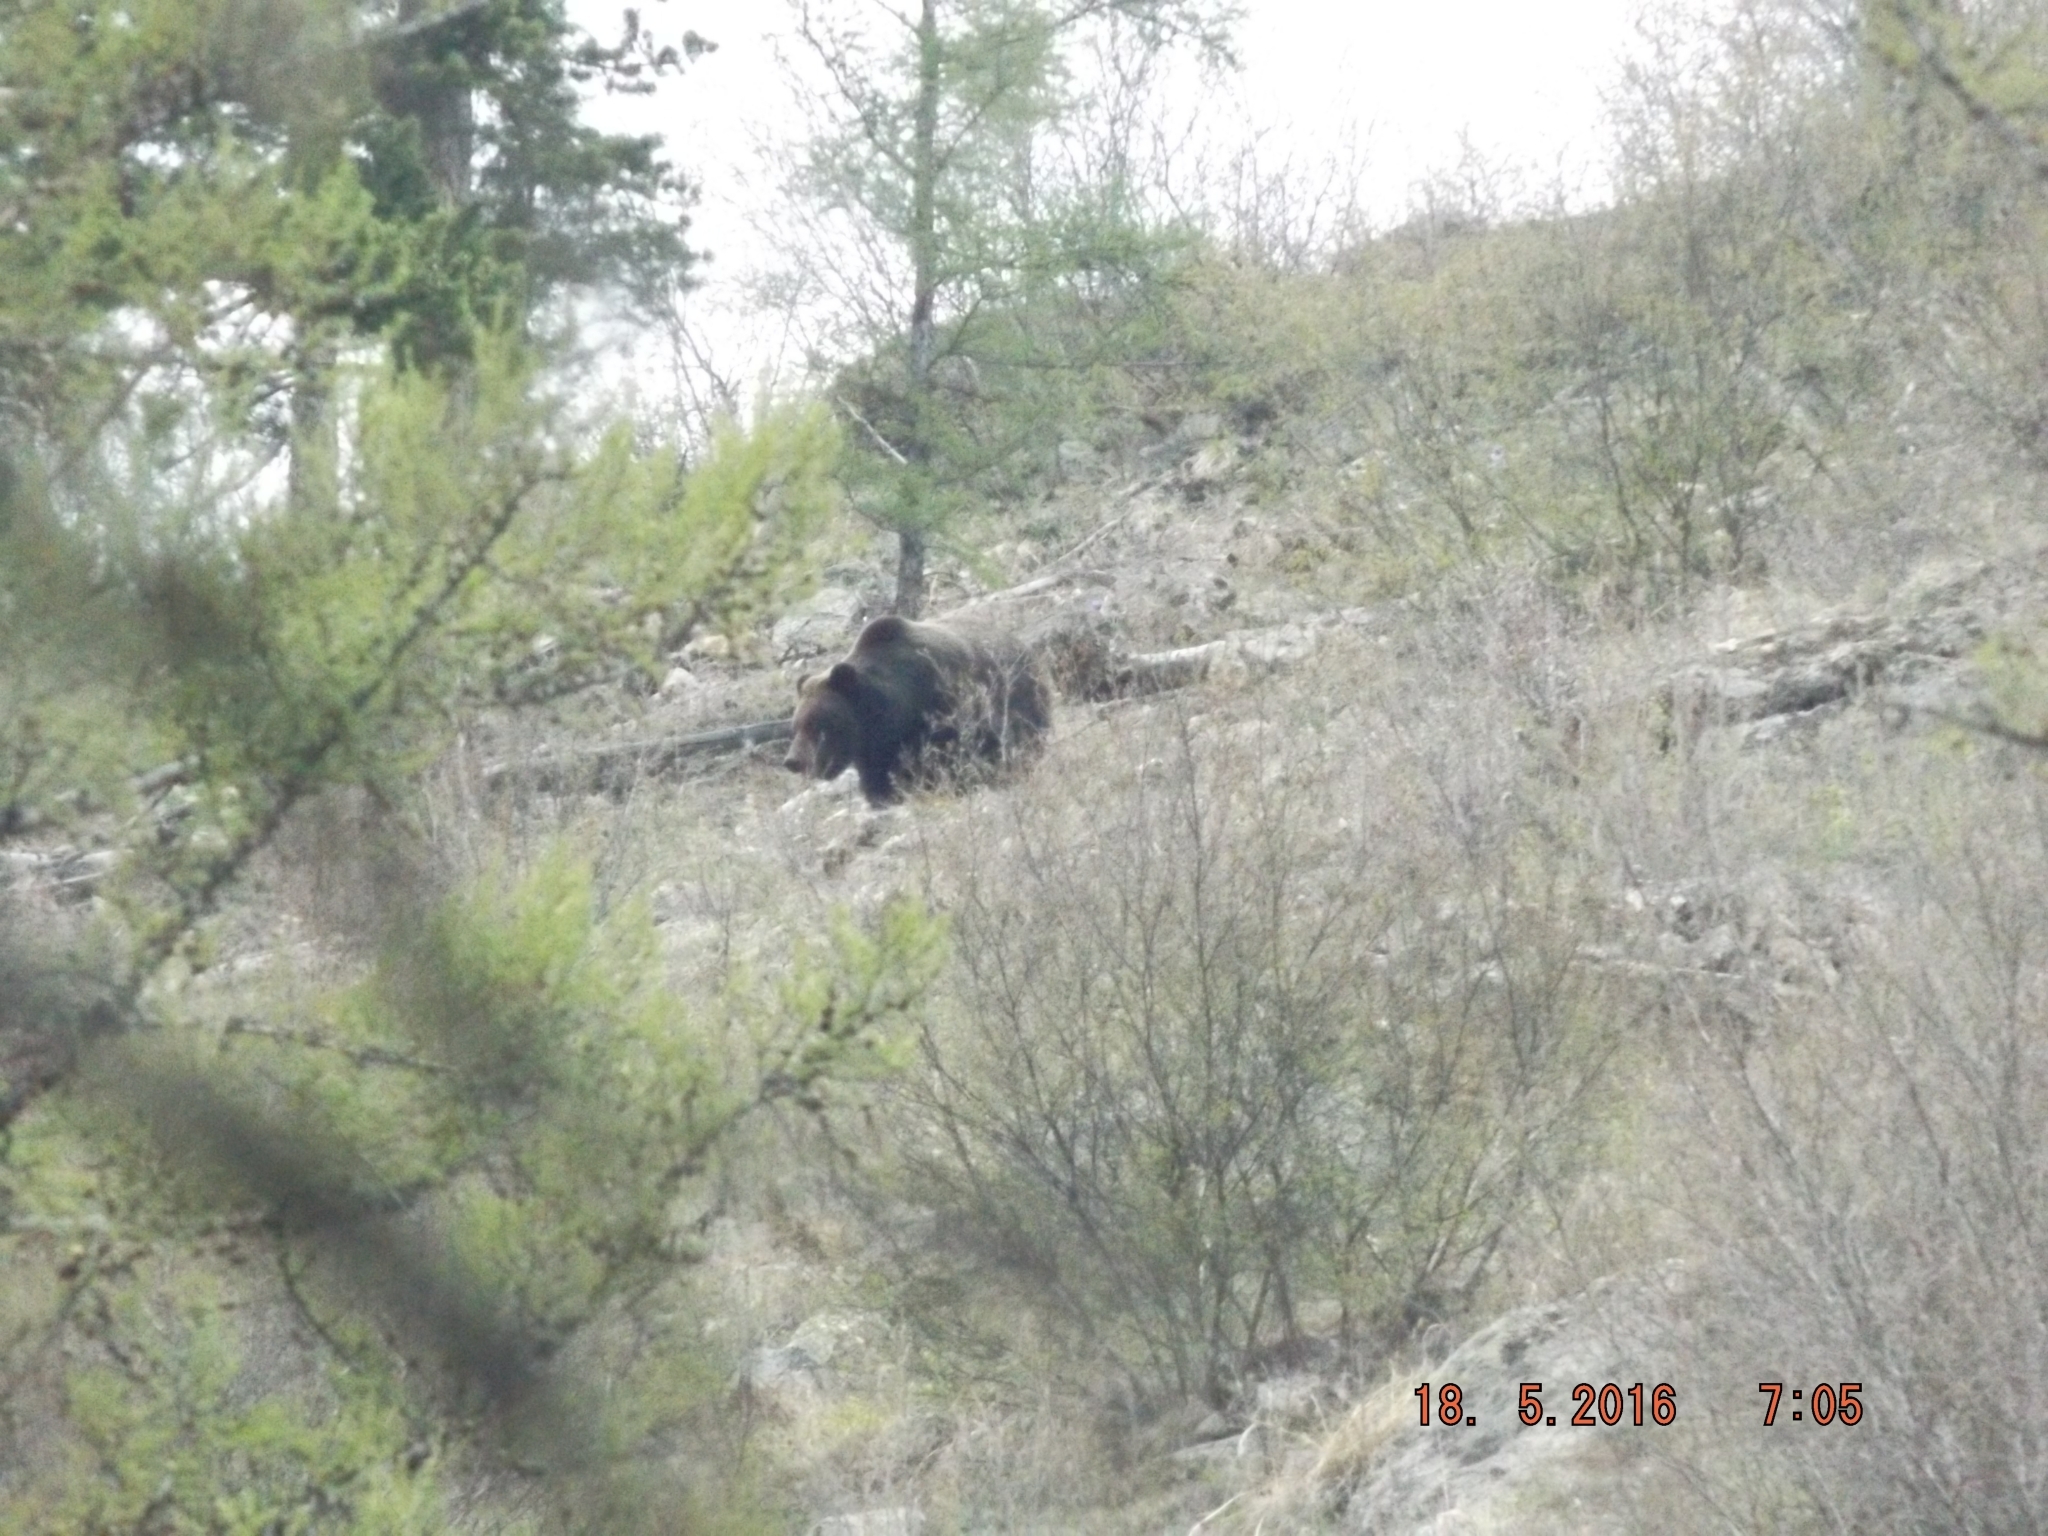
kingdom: Animalia
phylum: Chordata
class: Mammalia
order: Carnivora
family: Ursidae
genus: Ursus
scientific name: Ursus arctos
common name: Brown bear
